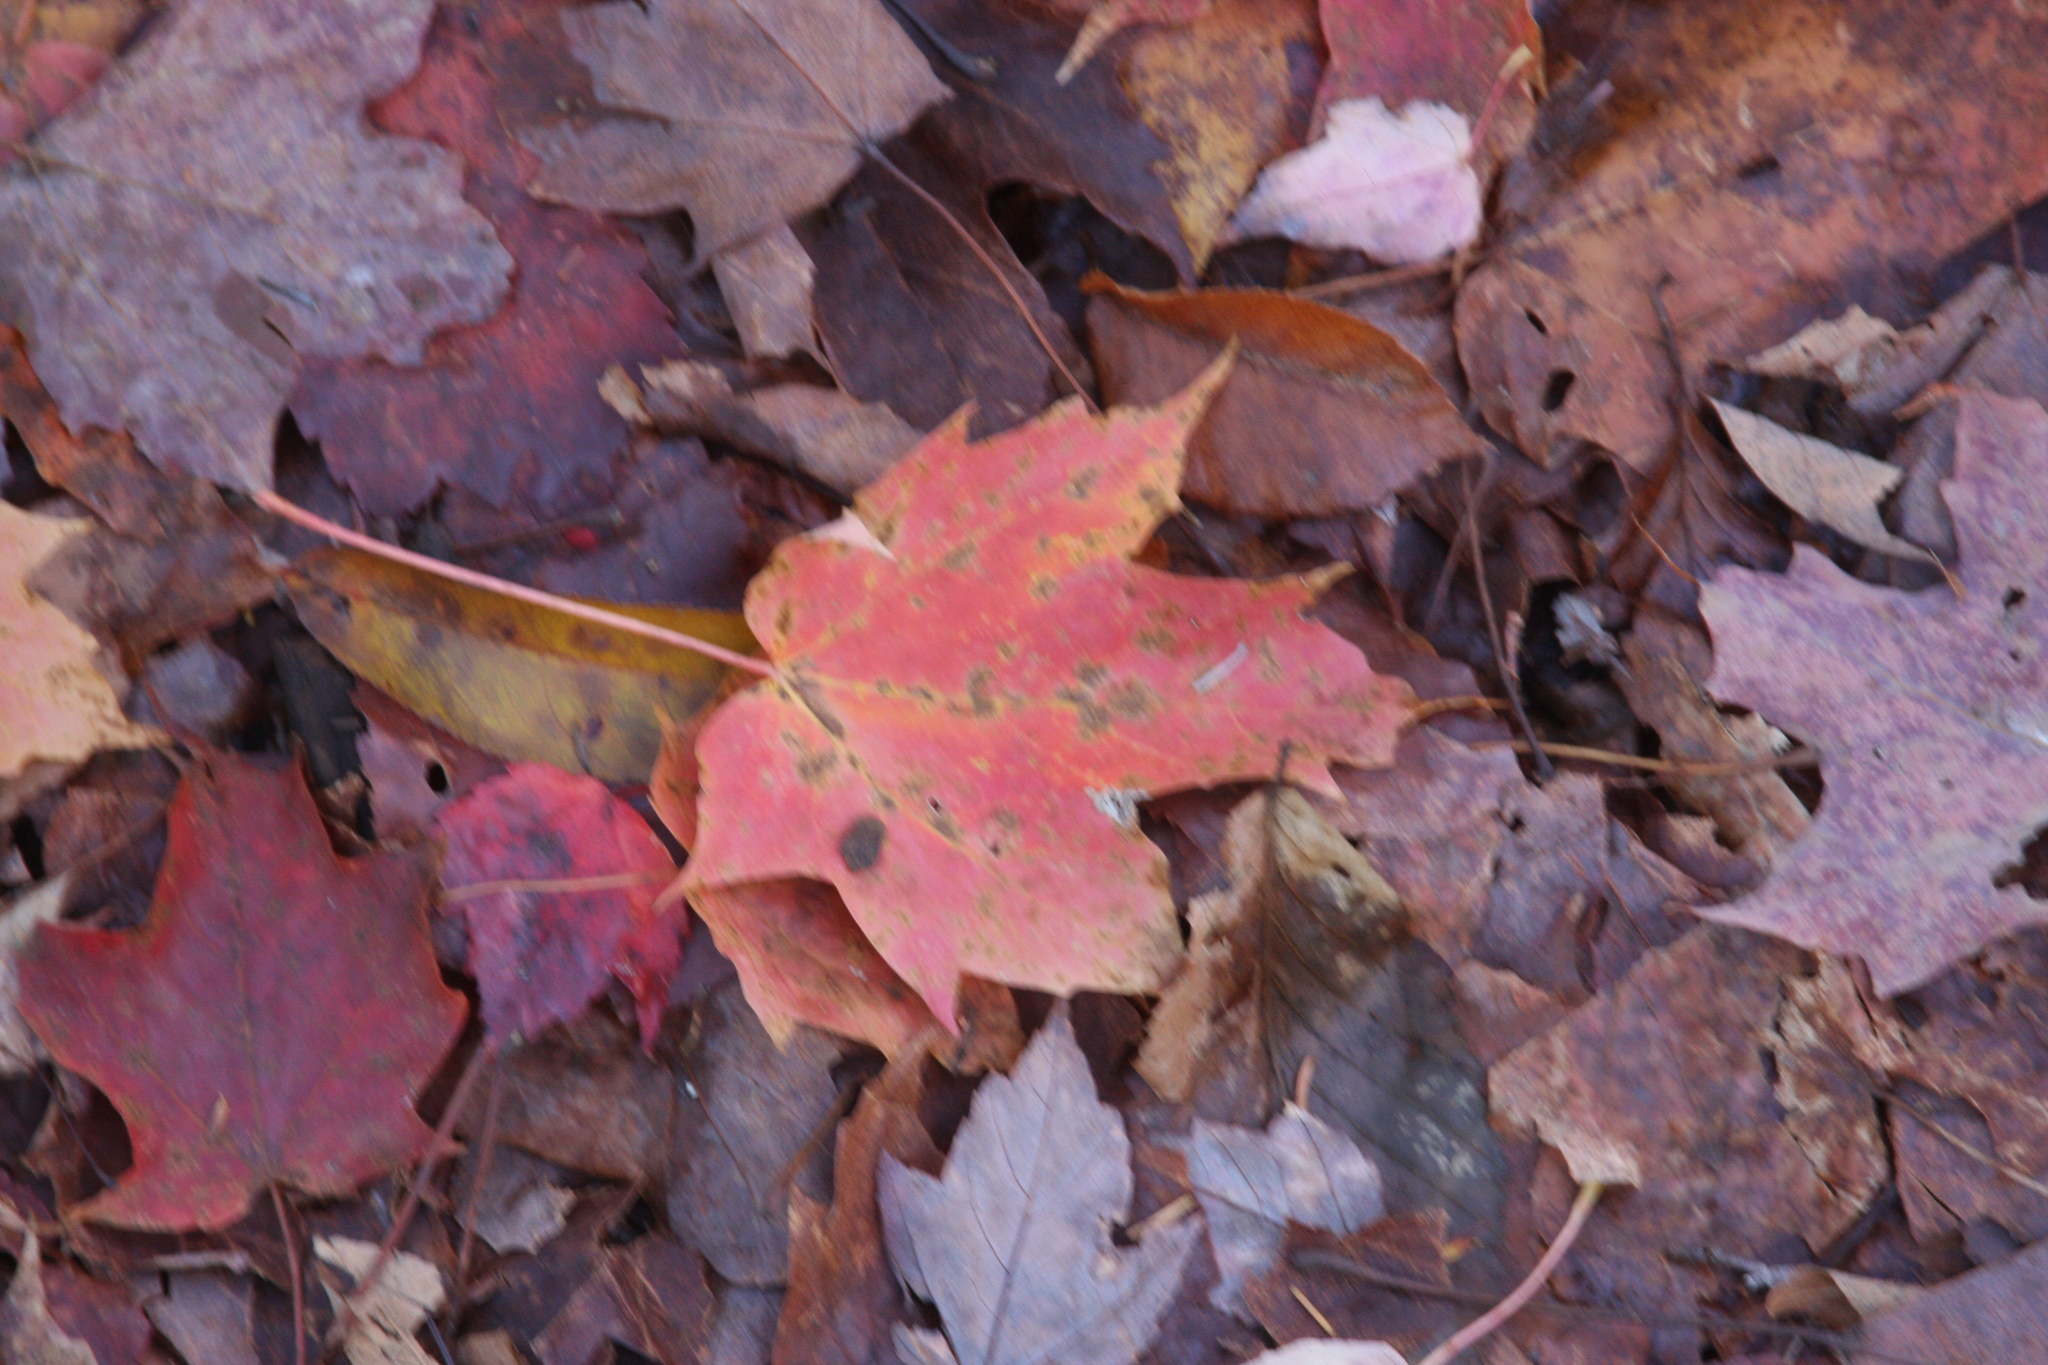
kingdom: Plantae
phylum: Tracheophyta
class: Magnoliopsida
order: Sapindales
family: Sapindaceae
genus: Acer
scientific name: Acer rubrum
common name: Red maple
